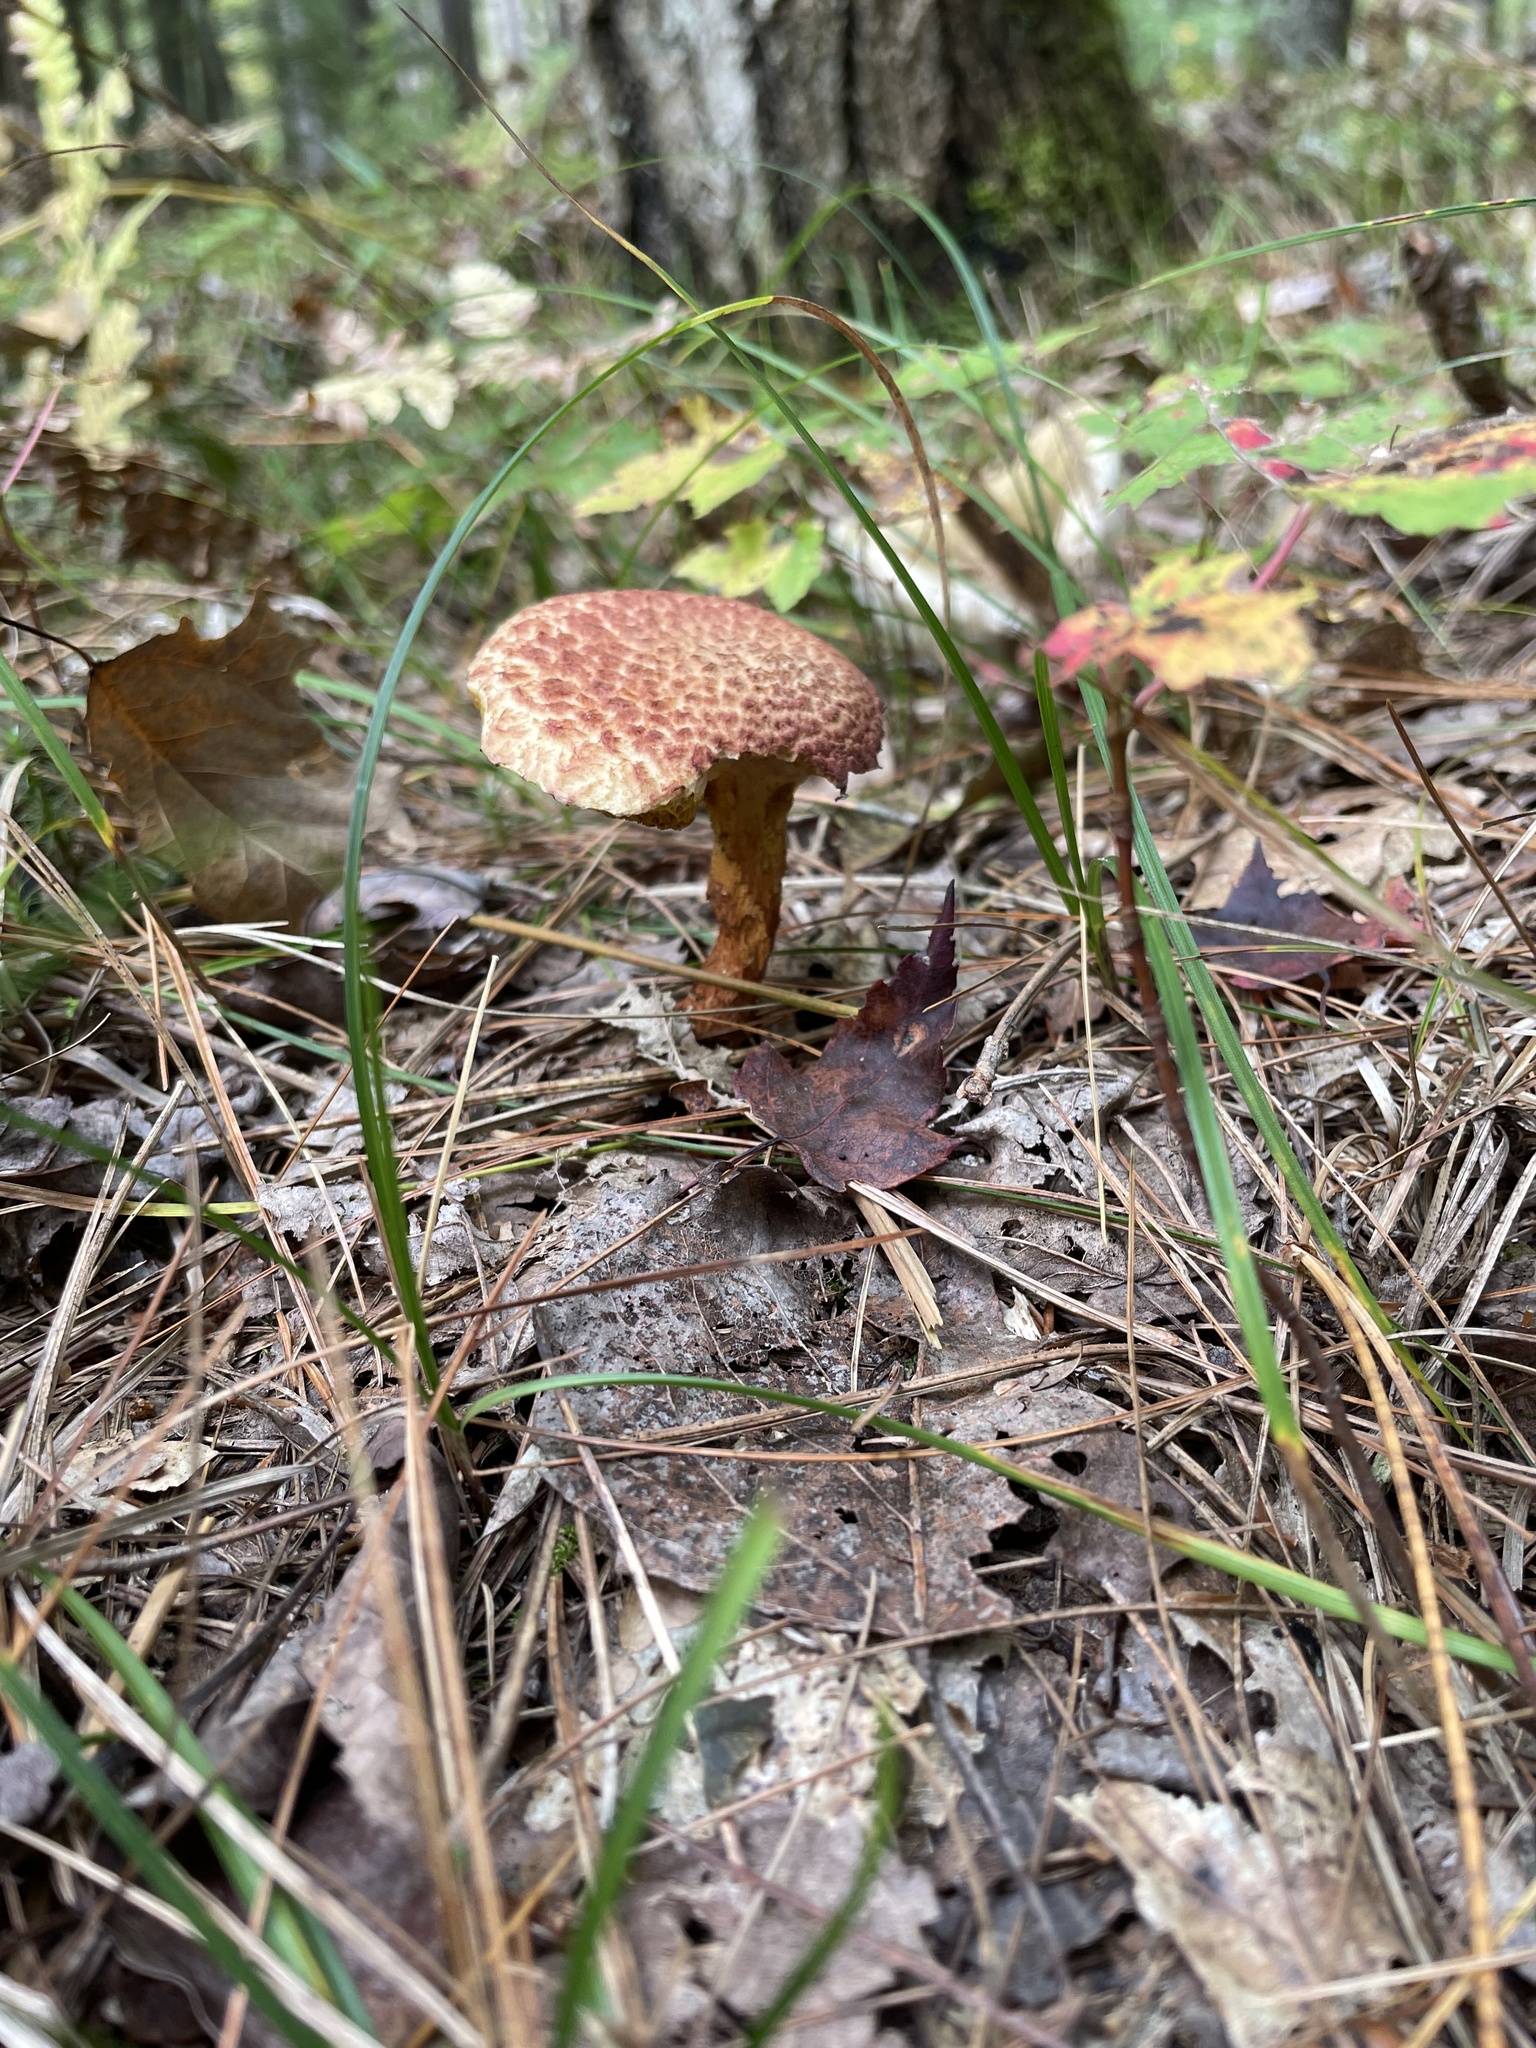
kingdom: Fungi
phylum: Basidiomycota
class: Agaricomycetes
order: Boletales
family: Suillaceae
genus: Suillus
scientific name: Suillus spraguei
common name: Painted suillus
